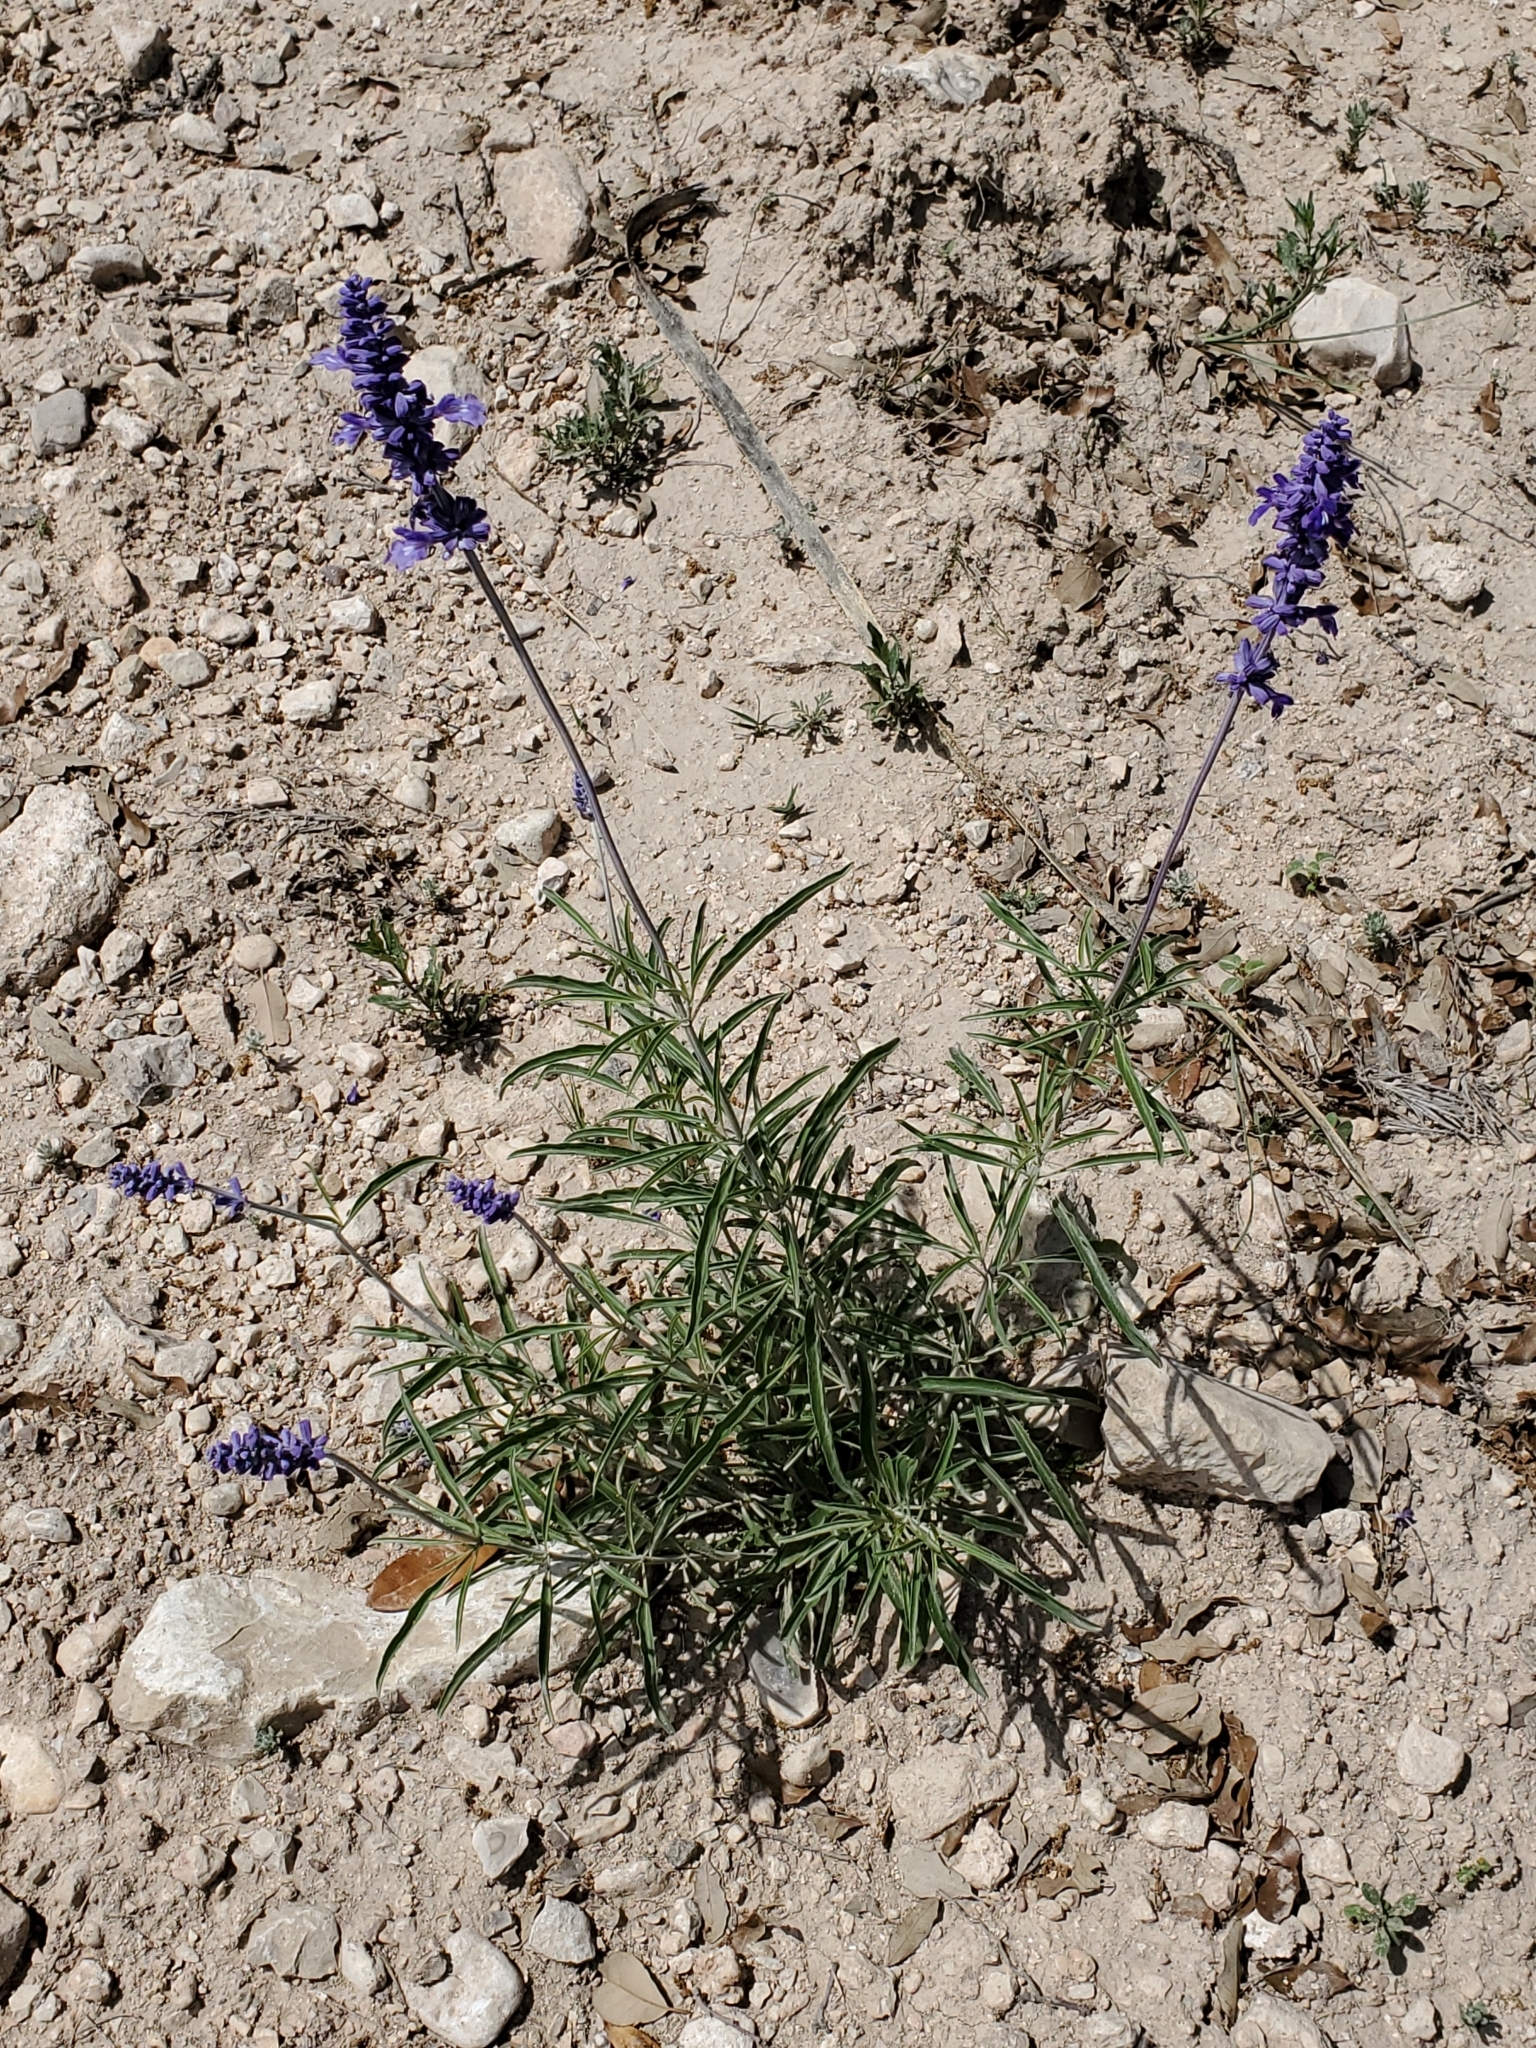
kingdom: Plantae
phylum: Tracheophyta
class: Magnoliopsida
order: Lamiales
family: Lamiaceae
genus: Salvia
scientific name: Salvia farinacea
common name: Mealy sage
